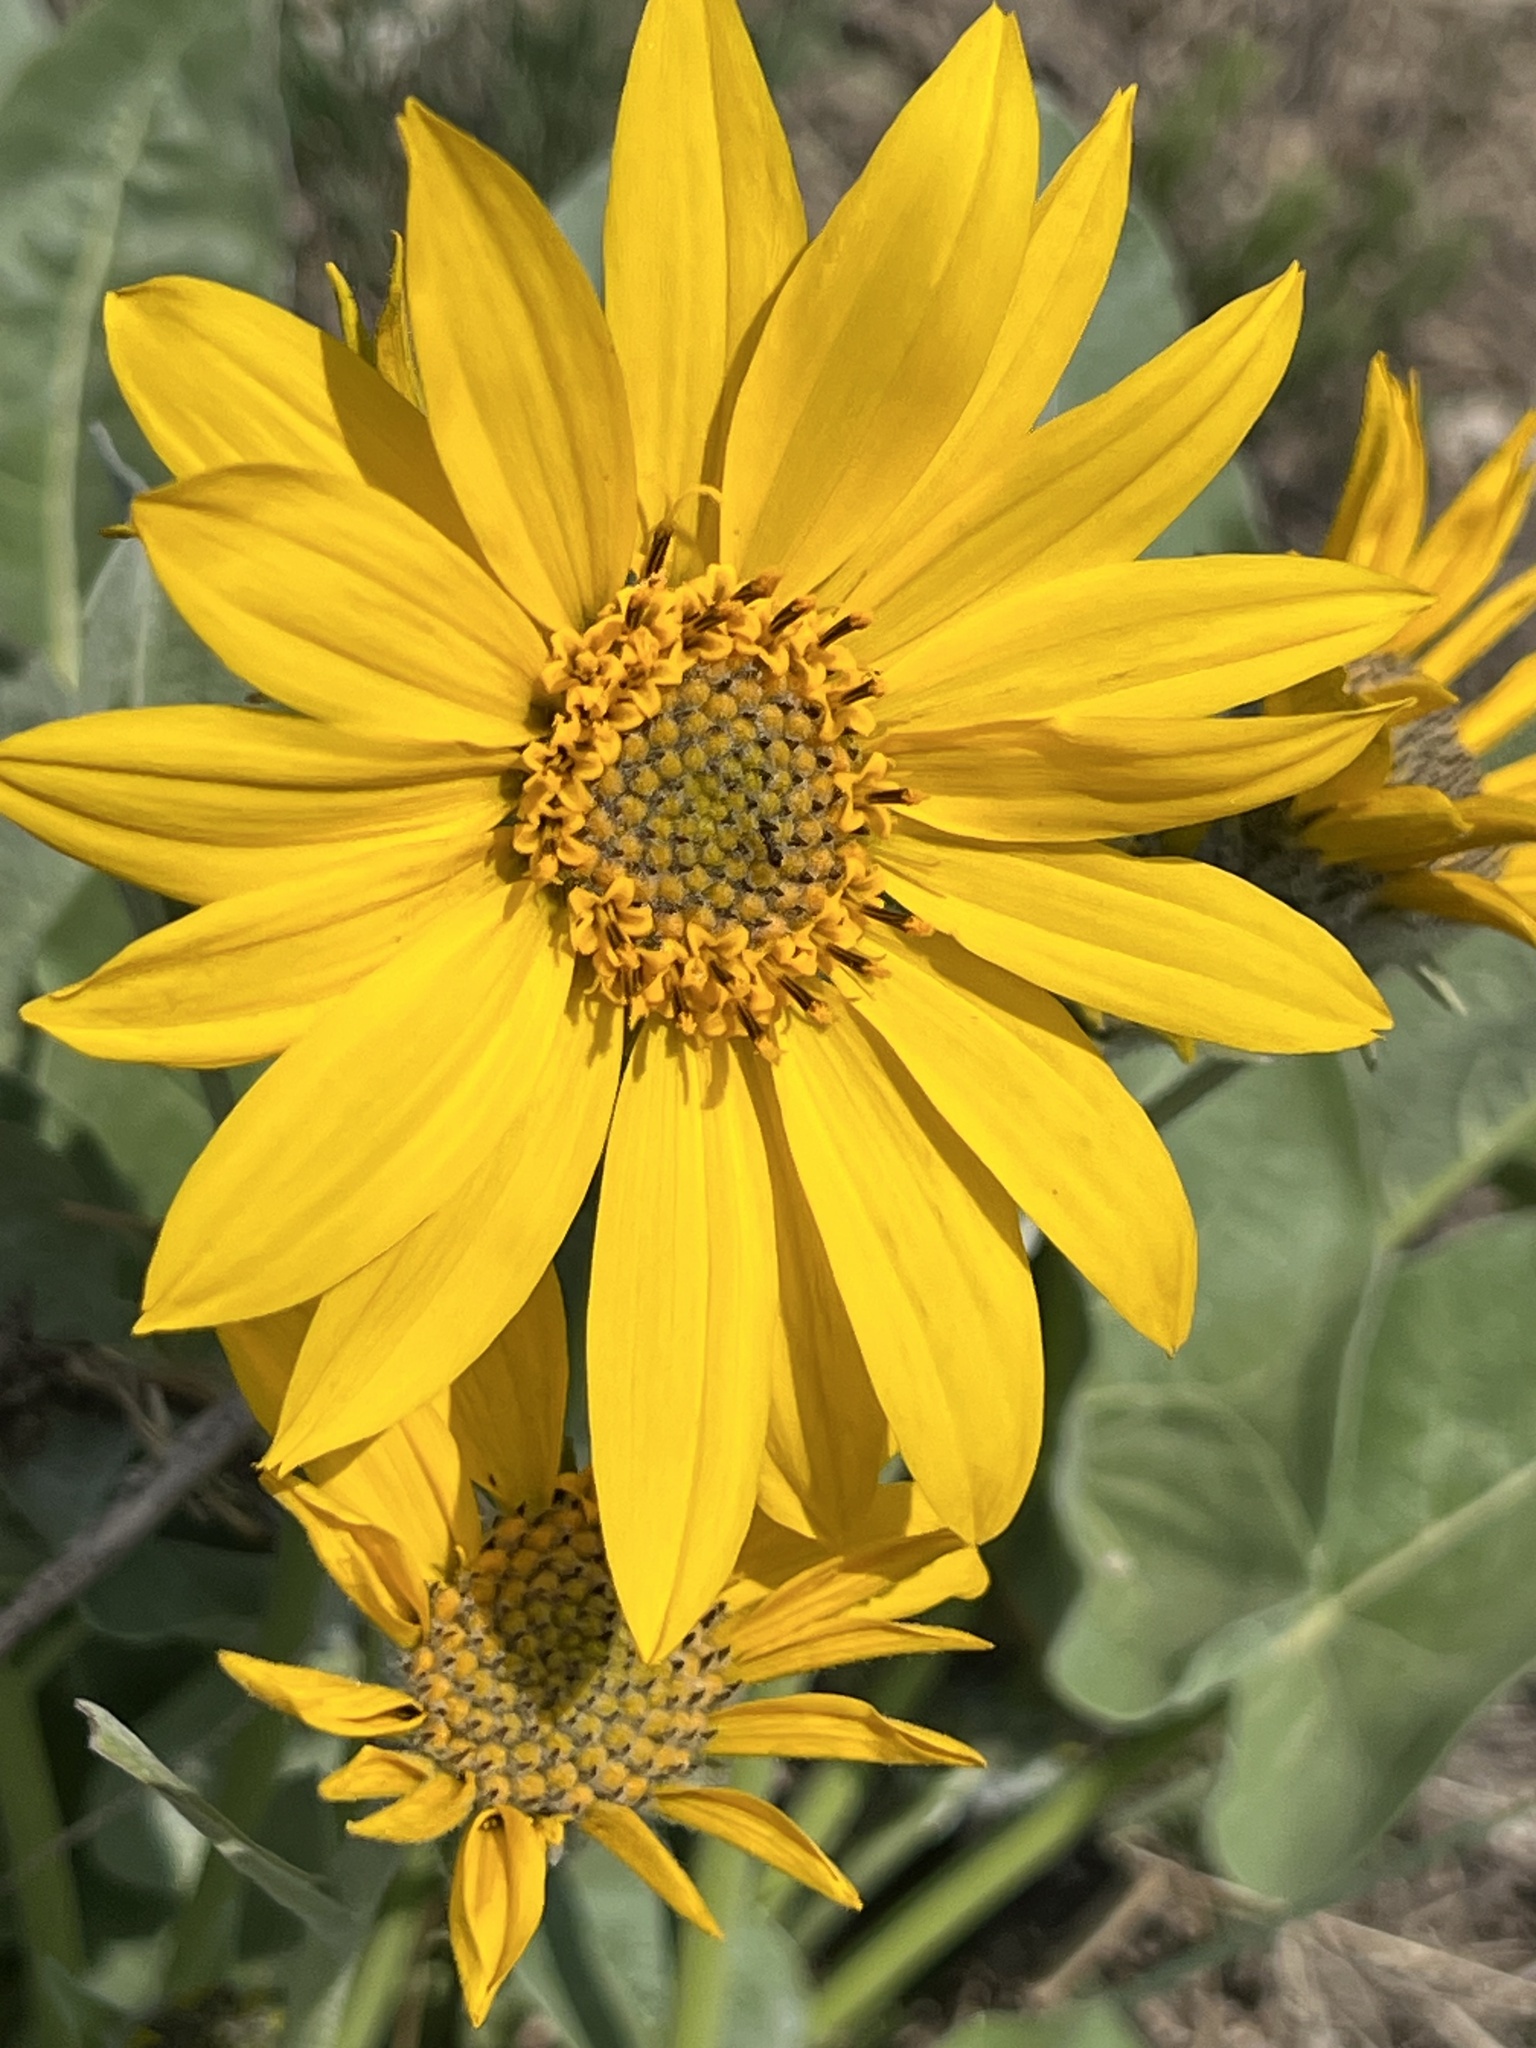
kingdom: Plantae
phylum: Tracheophyta
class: Magnoliopsida
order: Asterales
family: Asteraceae
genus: Wyethia
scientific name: Wyethia sagittata
